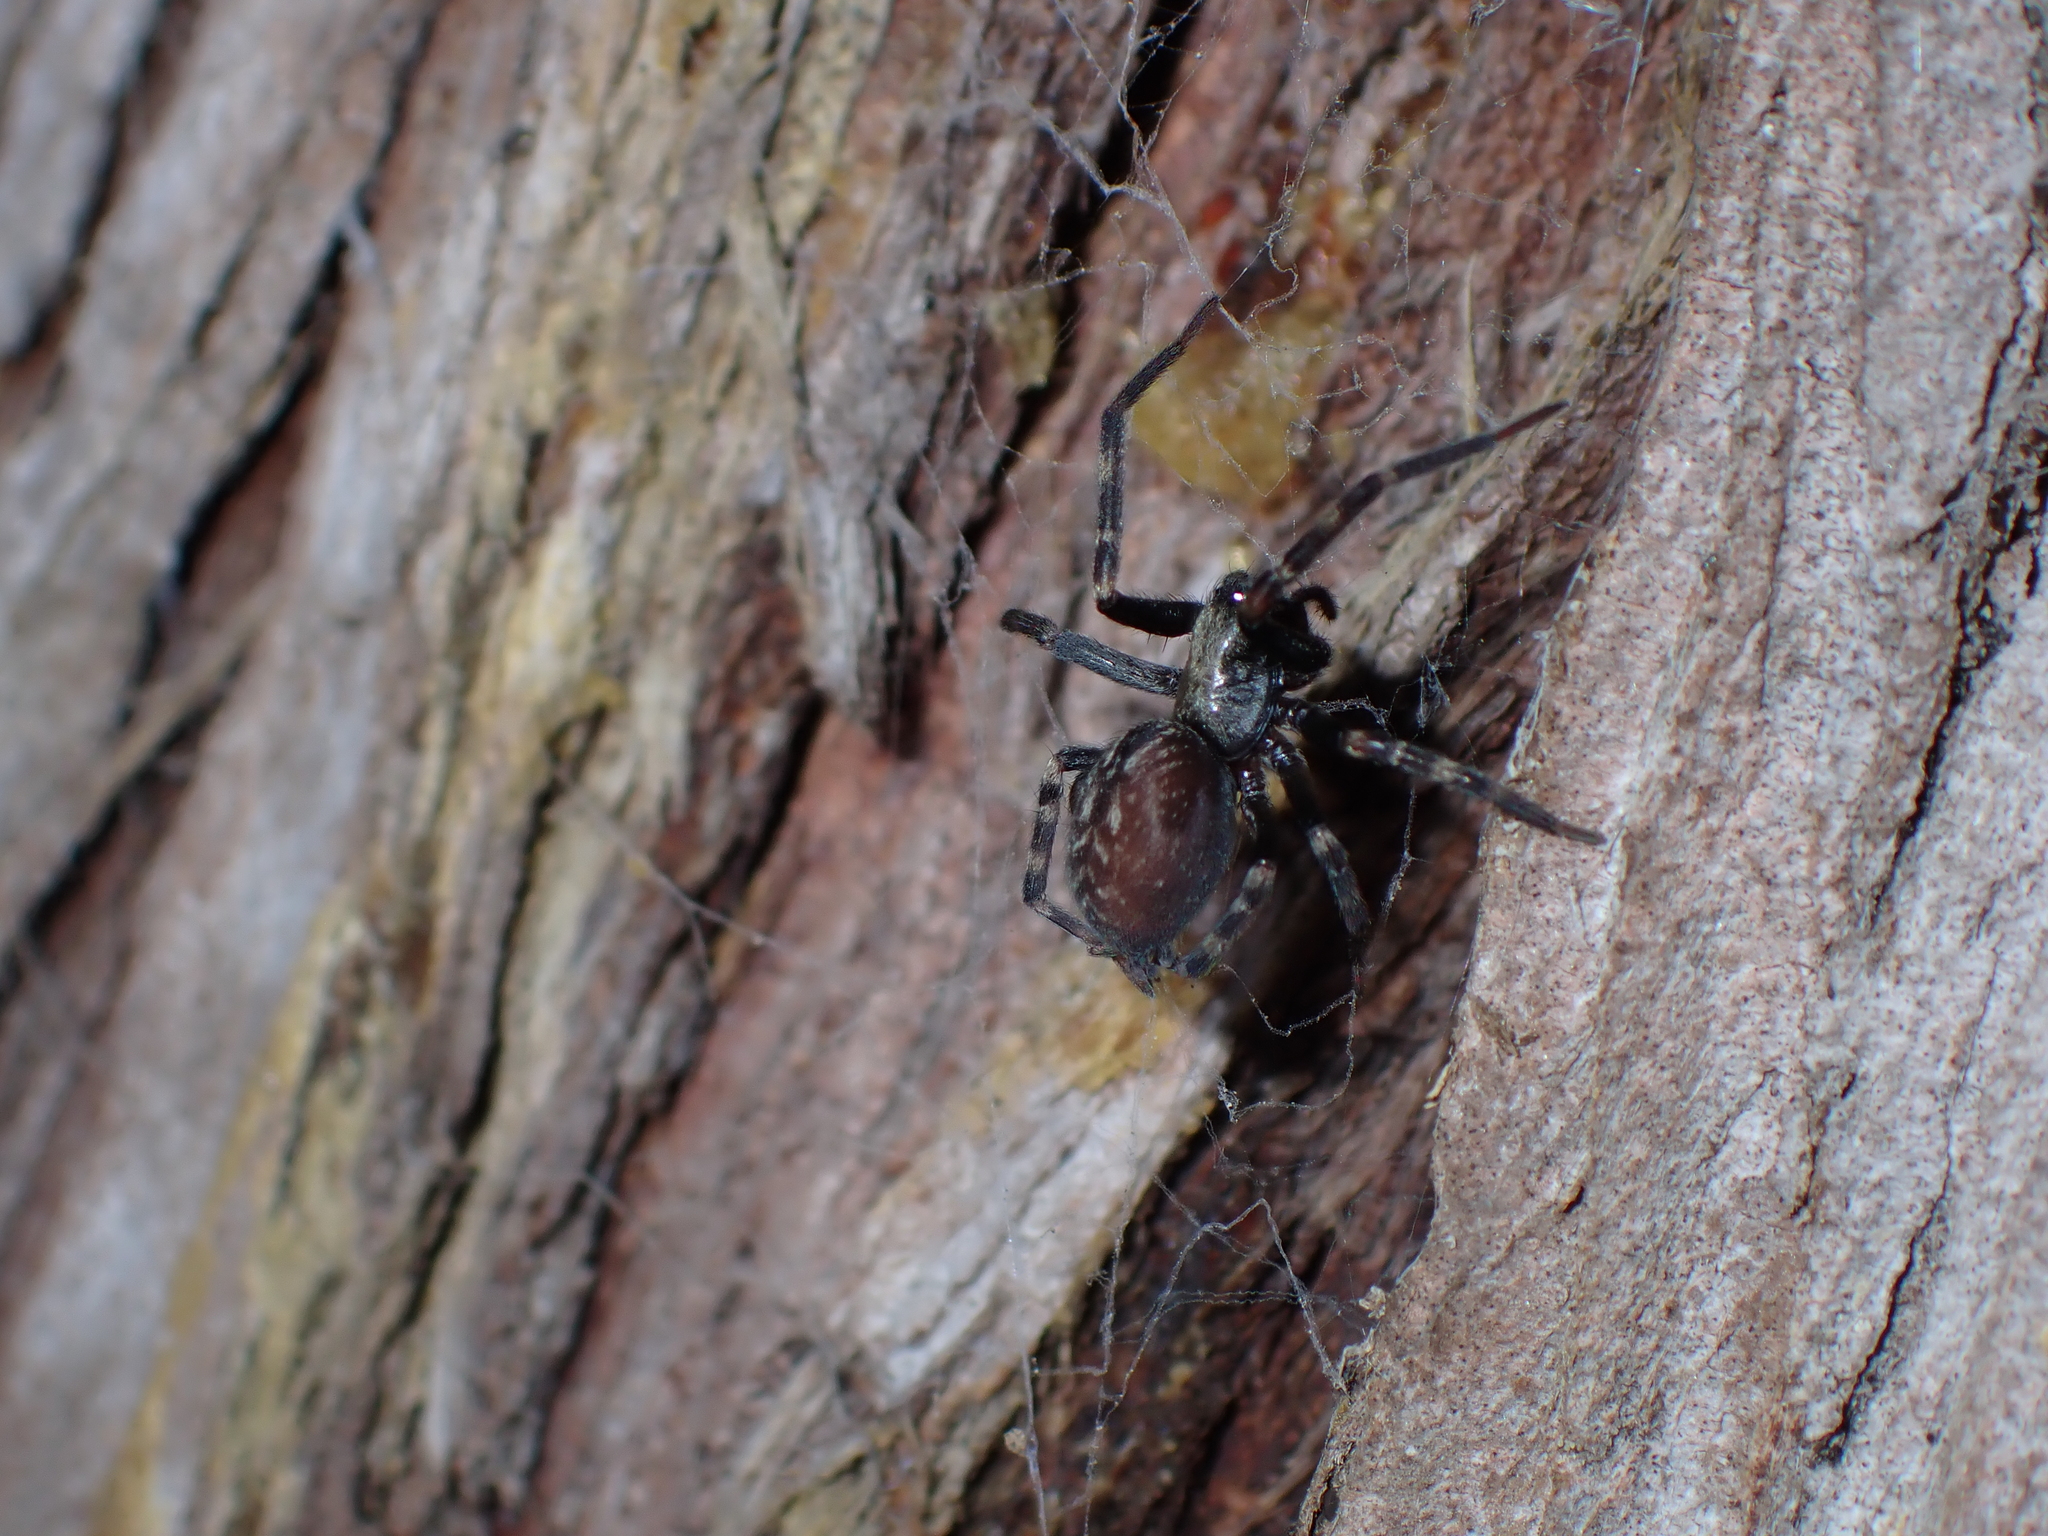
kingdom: Animalia
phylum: Arthropoda
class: Arachnida
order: Araneae
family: Desidae
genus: Badumna
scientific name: Badumna insignis
